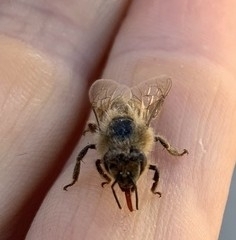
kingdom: Animalia
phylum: Arthropoda
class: Insecta
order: Hymenoptera
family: Apidae
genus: Apis
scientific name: Apis mellifera
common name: Honey bee
